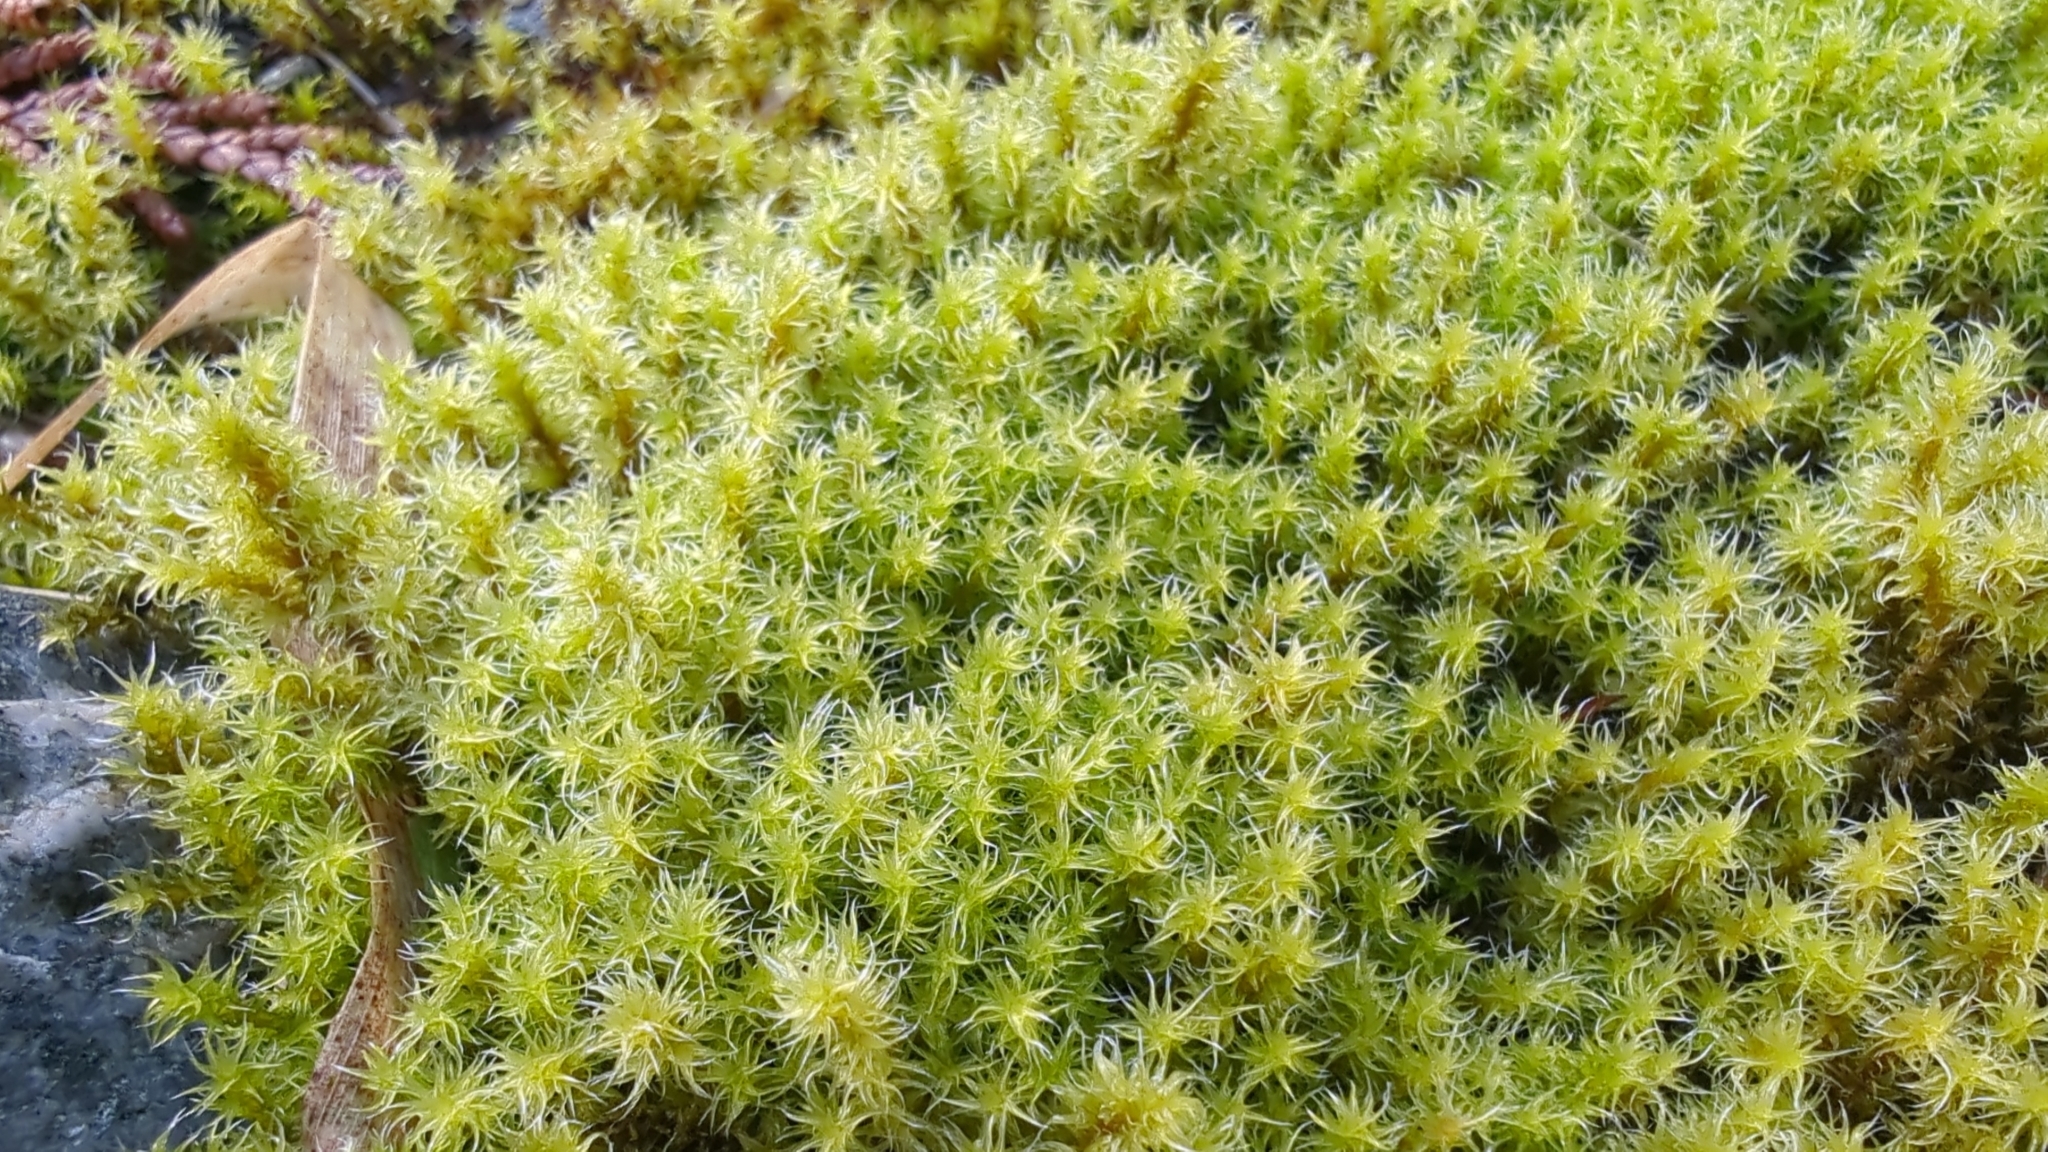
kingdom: Plantae
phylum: Bryophyta
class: Bryopsida
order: Grimmiales
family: Grimmiaceae
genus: Niphotrichum
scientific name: Niphotrichum elongatum
